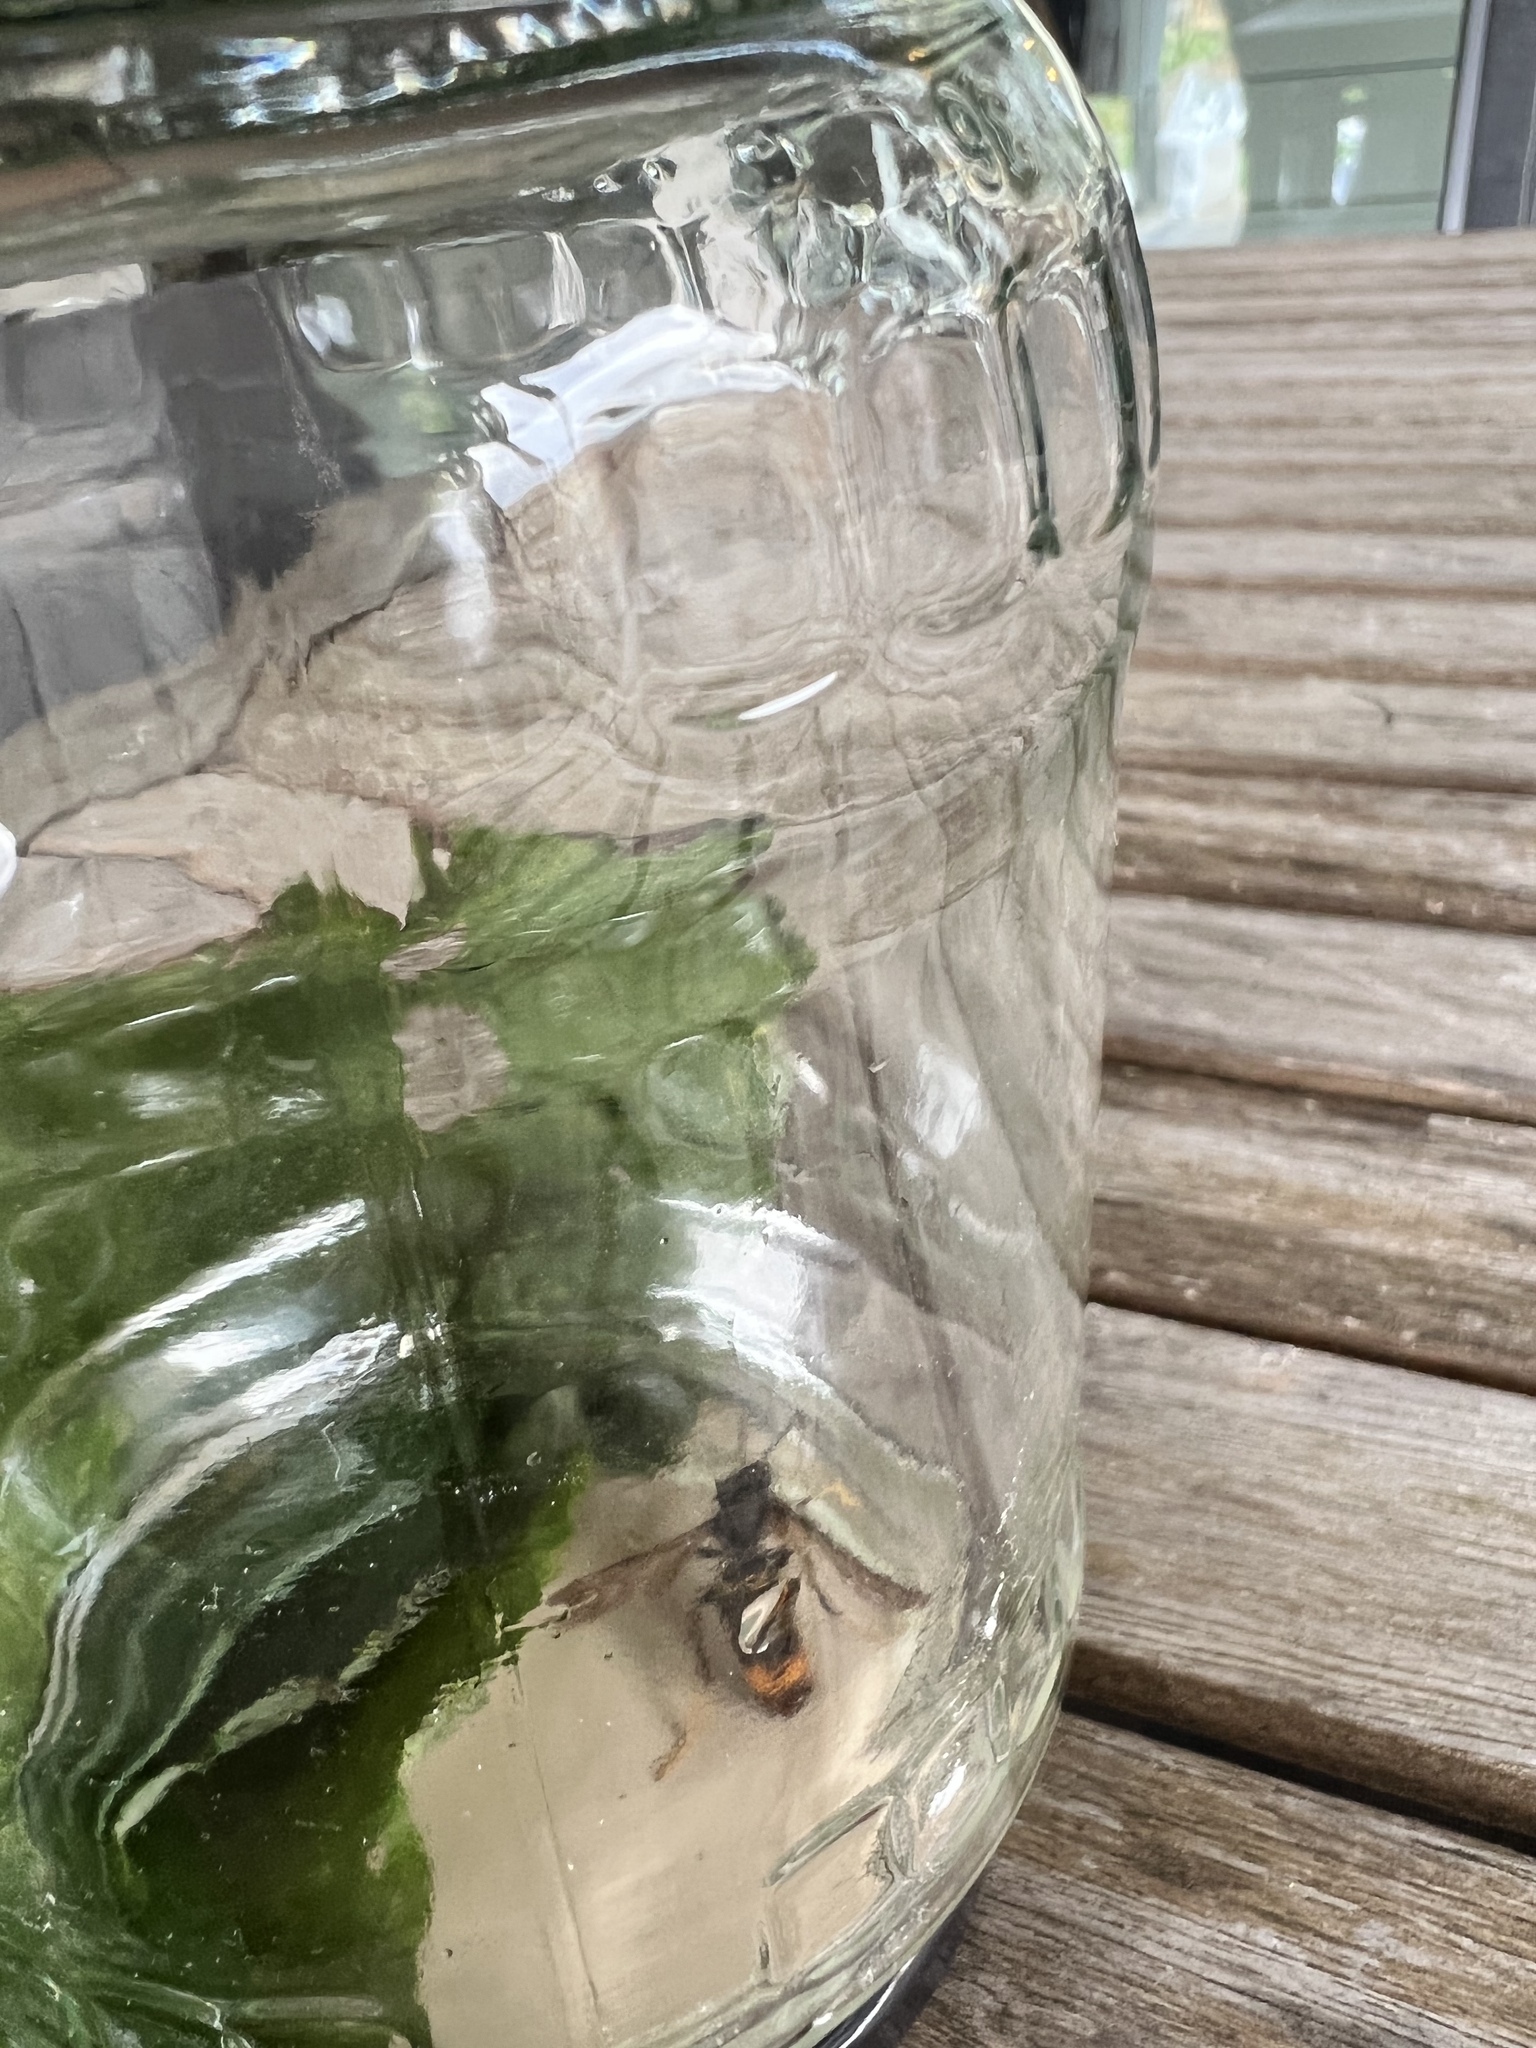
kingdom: Animalia
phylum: Arthropoda
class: Insecta
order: Hymenoptera
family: Vespidae
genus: Vespa
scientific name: Vespa velutina
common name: Asian hornet
